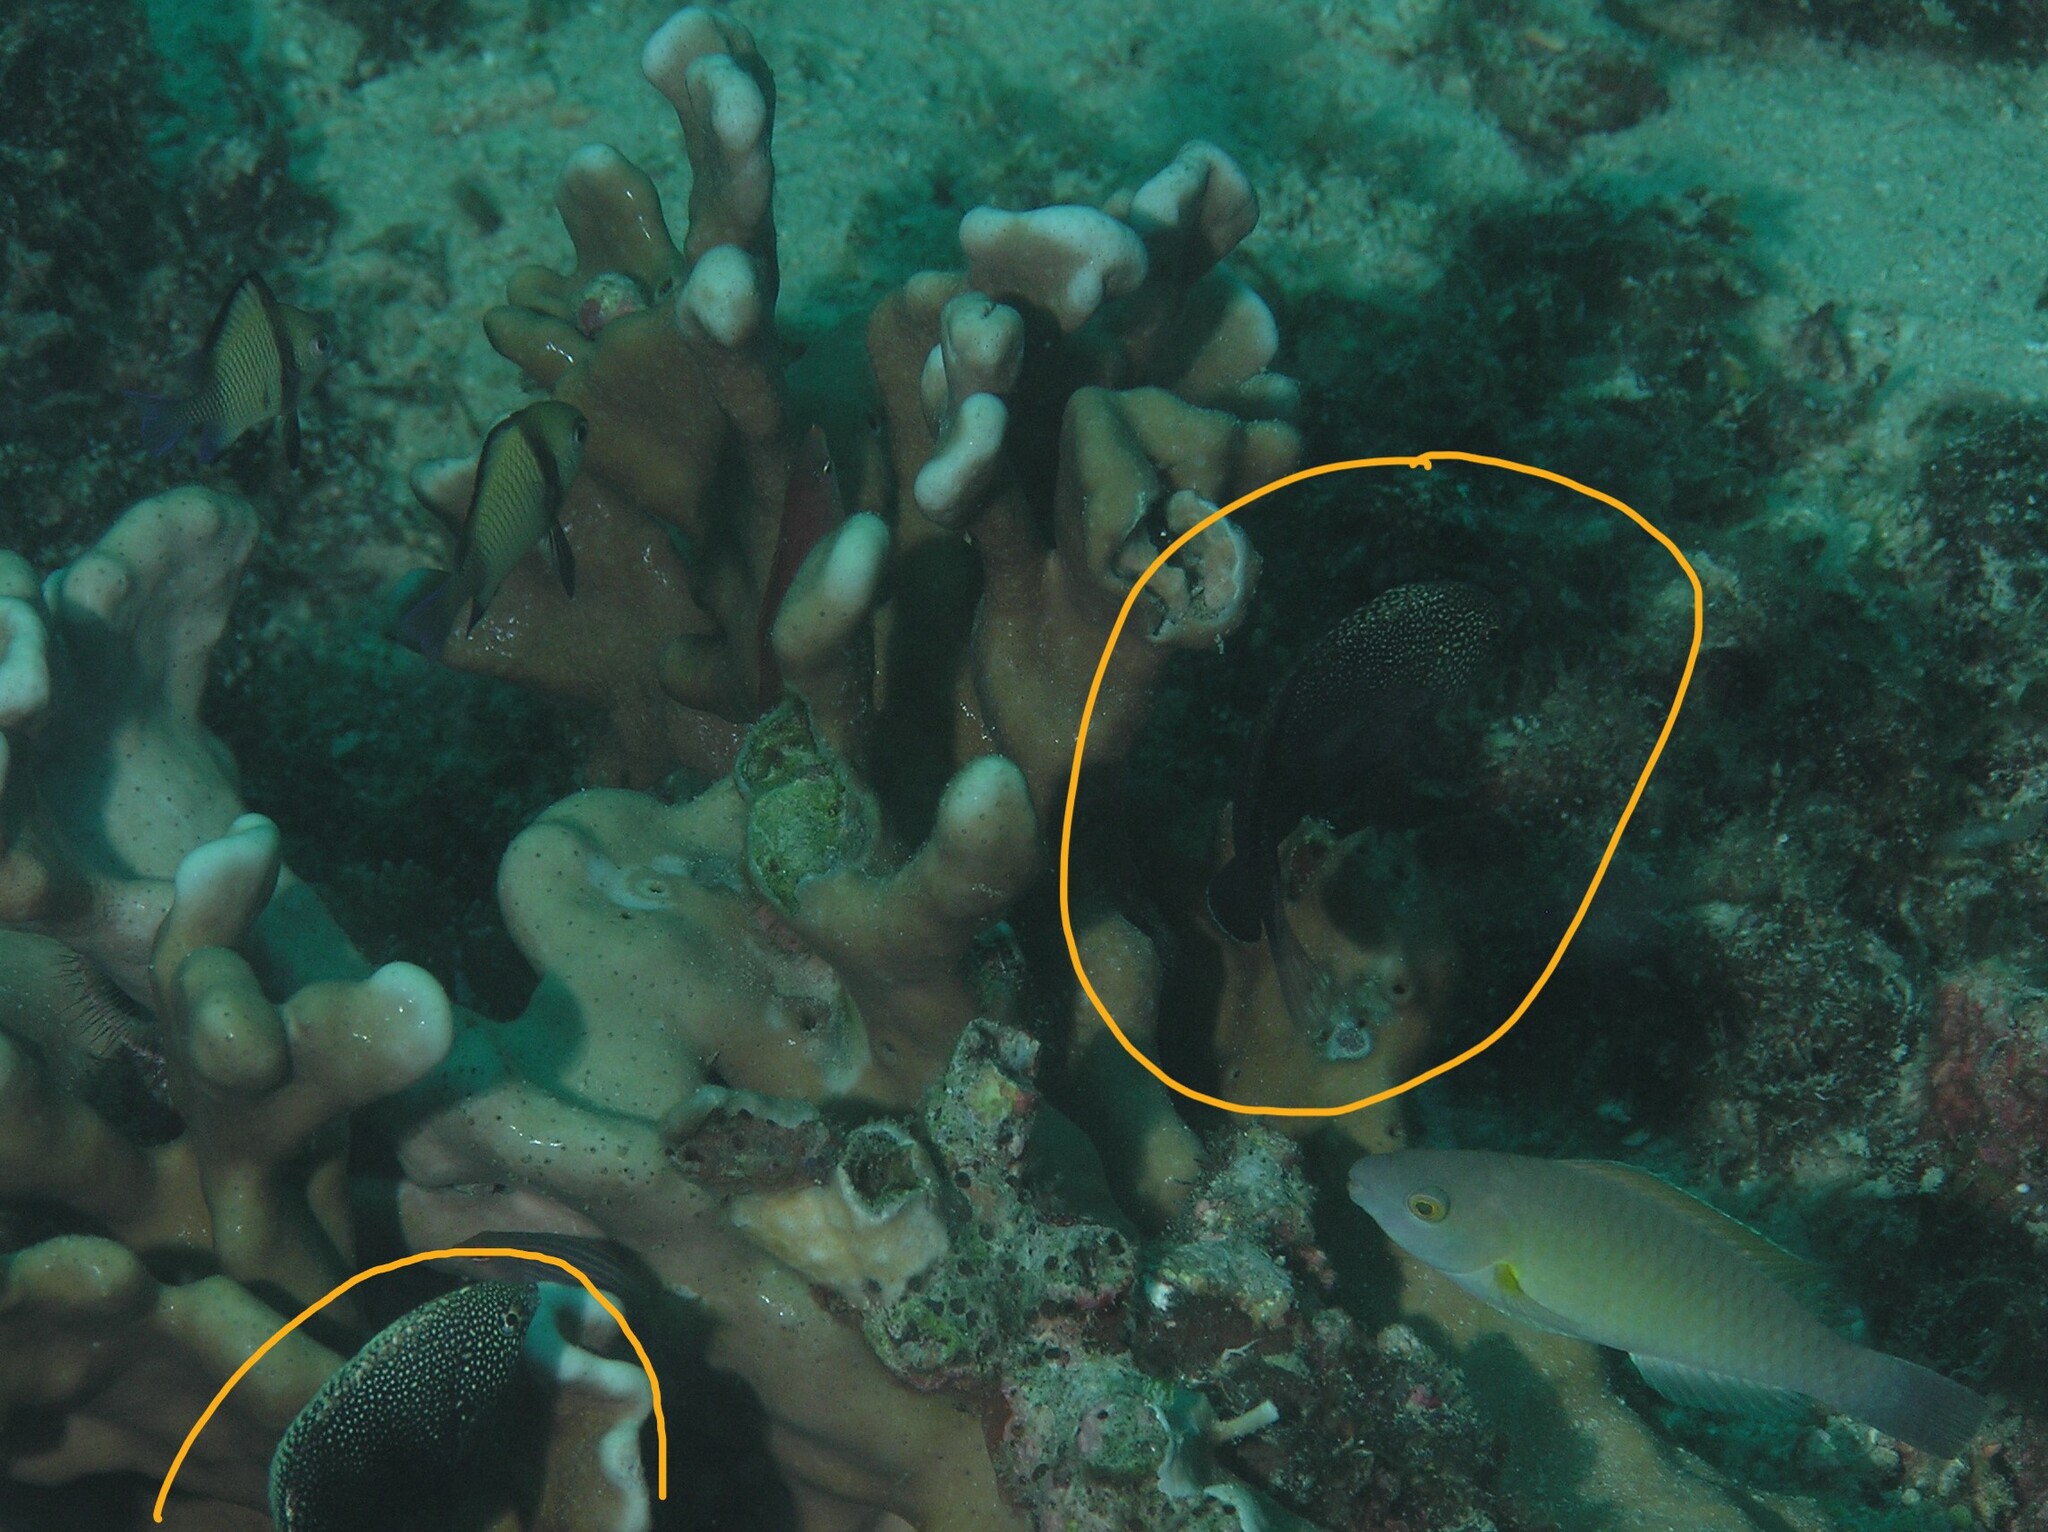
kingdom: Animalia
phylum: Chordata
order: Perciformes
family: Labridae
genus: Macropharyngodon
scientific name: Macropharyngodon negrosensis
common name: Black leopard wrasse
